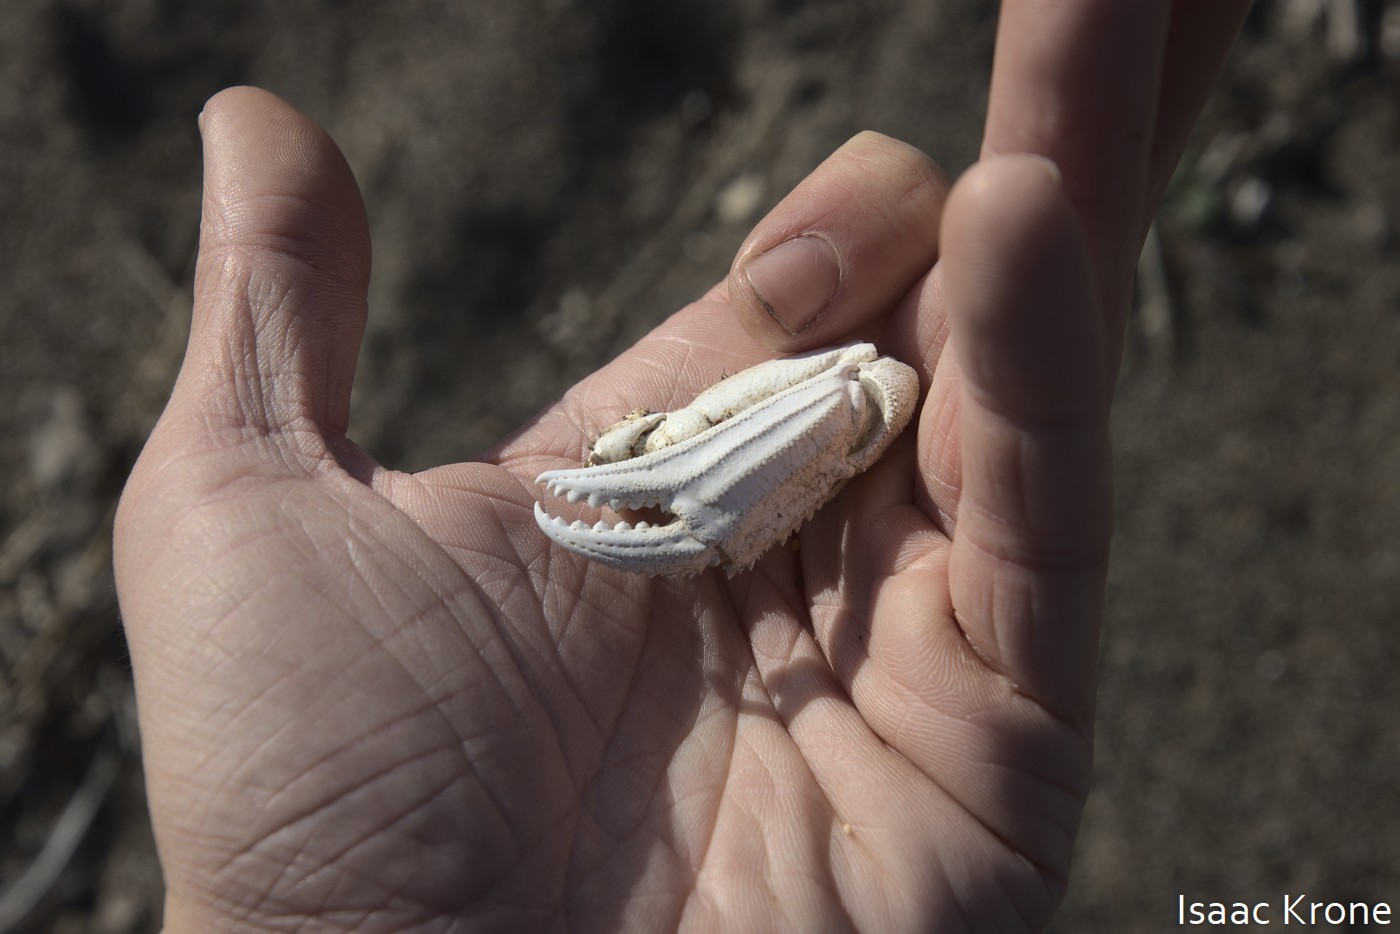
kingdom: Animalia
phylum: Arthropoda
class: Malacostraca
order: Decapoda
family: Cancridae
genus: Metacarcinus
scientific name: Metacarcinus magister
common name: Californian crab
